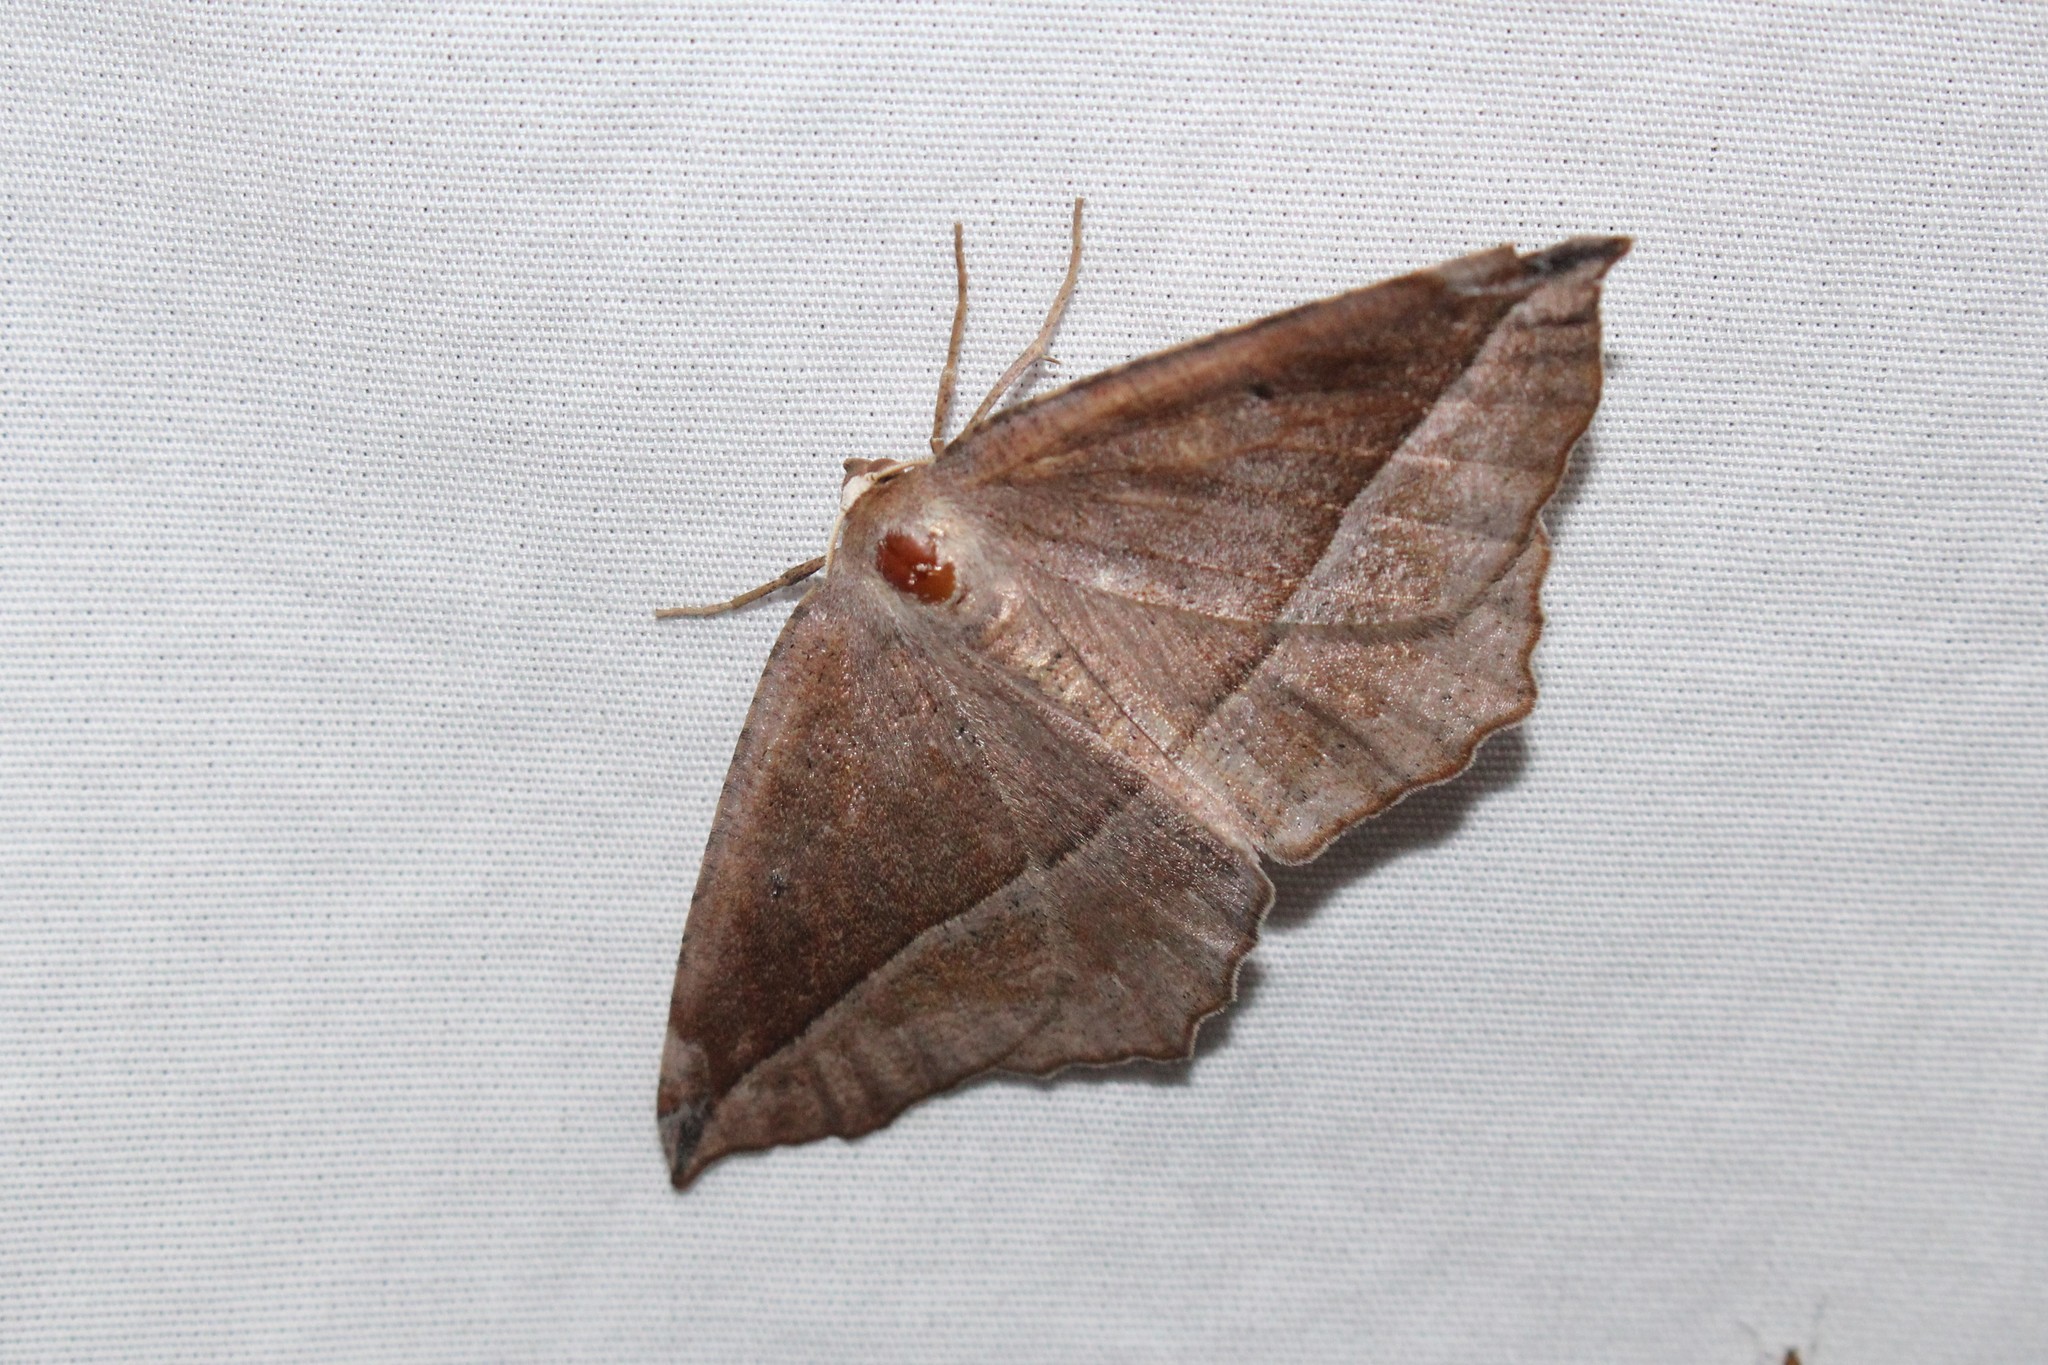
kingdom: Animalia
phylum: Arthropoda
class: Insecta
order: Lepidoptera
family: Geometridae
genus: Eutrapela
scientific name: Eutrapela clemataria
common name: Curved-toothed geometer
